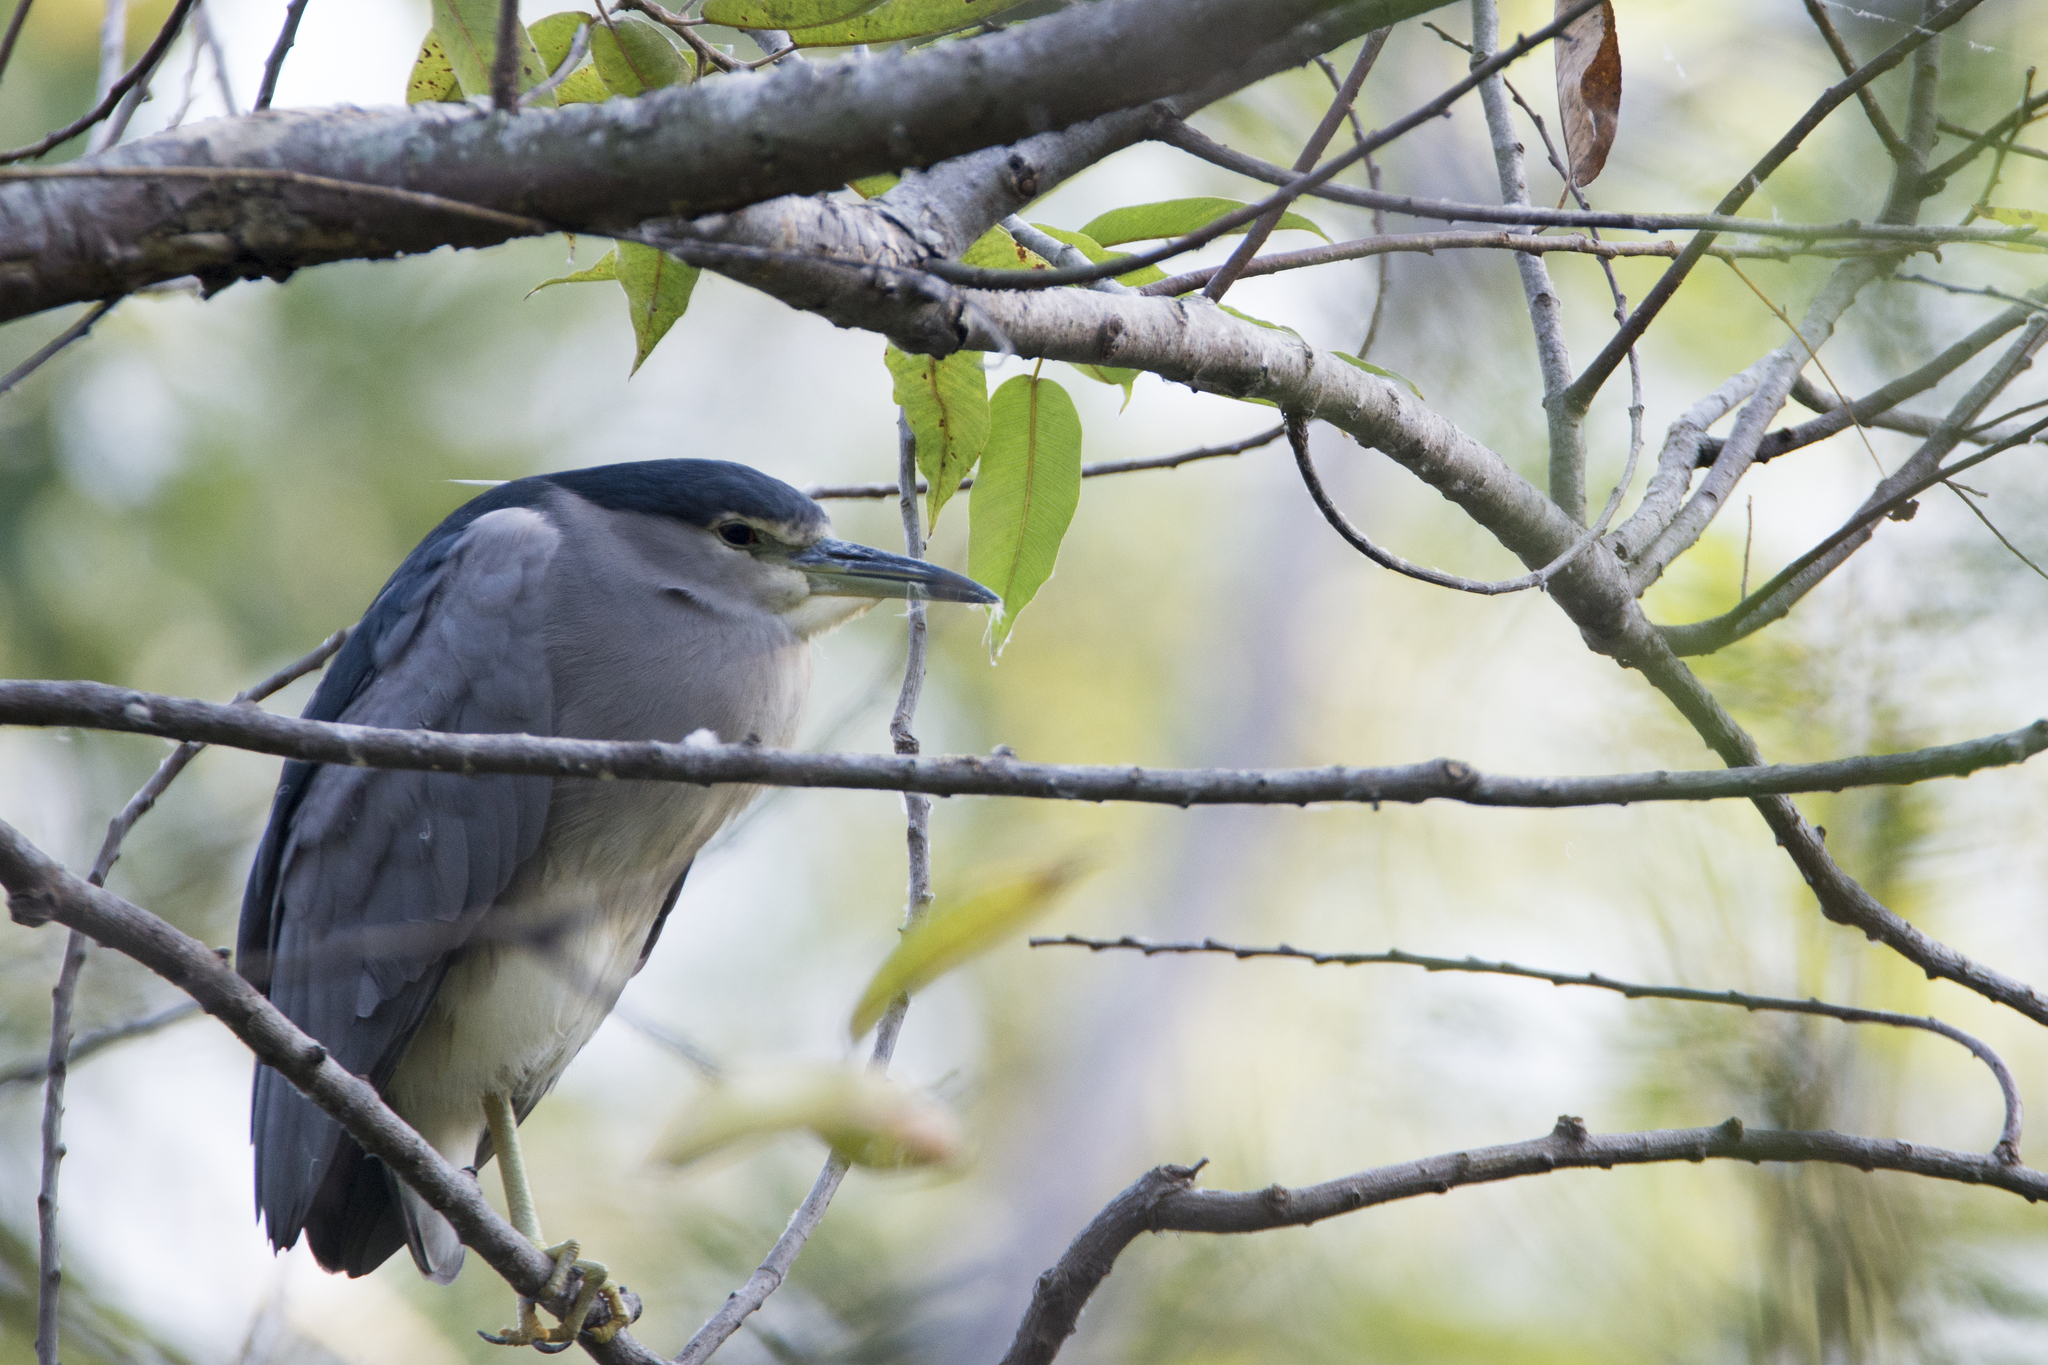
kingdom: Animalia
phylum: Chordata
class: Aves
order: Pelecaniformes
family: Ardeidae
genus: Nycticorax
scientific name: Nycticorax nycticorax
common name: Black-crowned night heron
